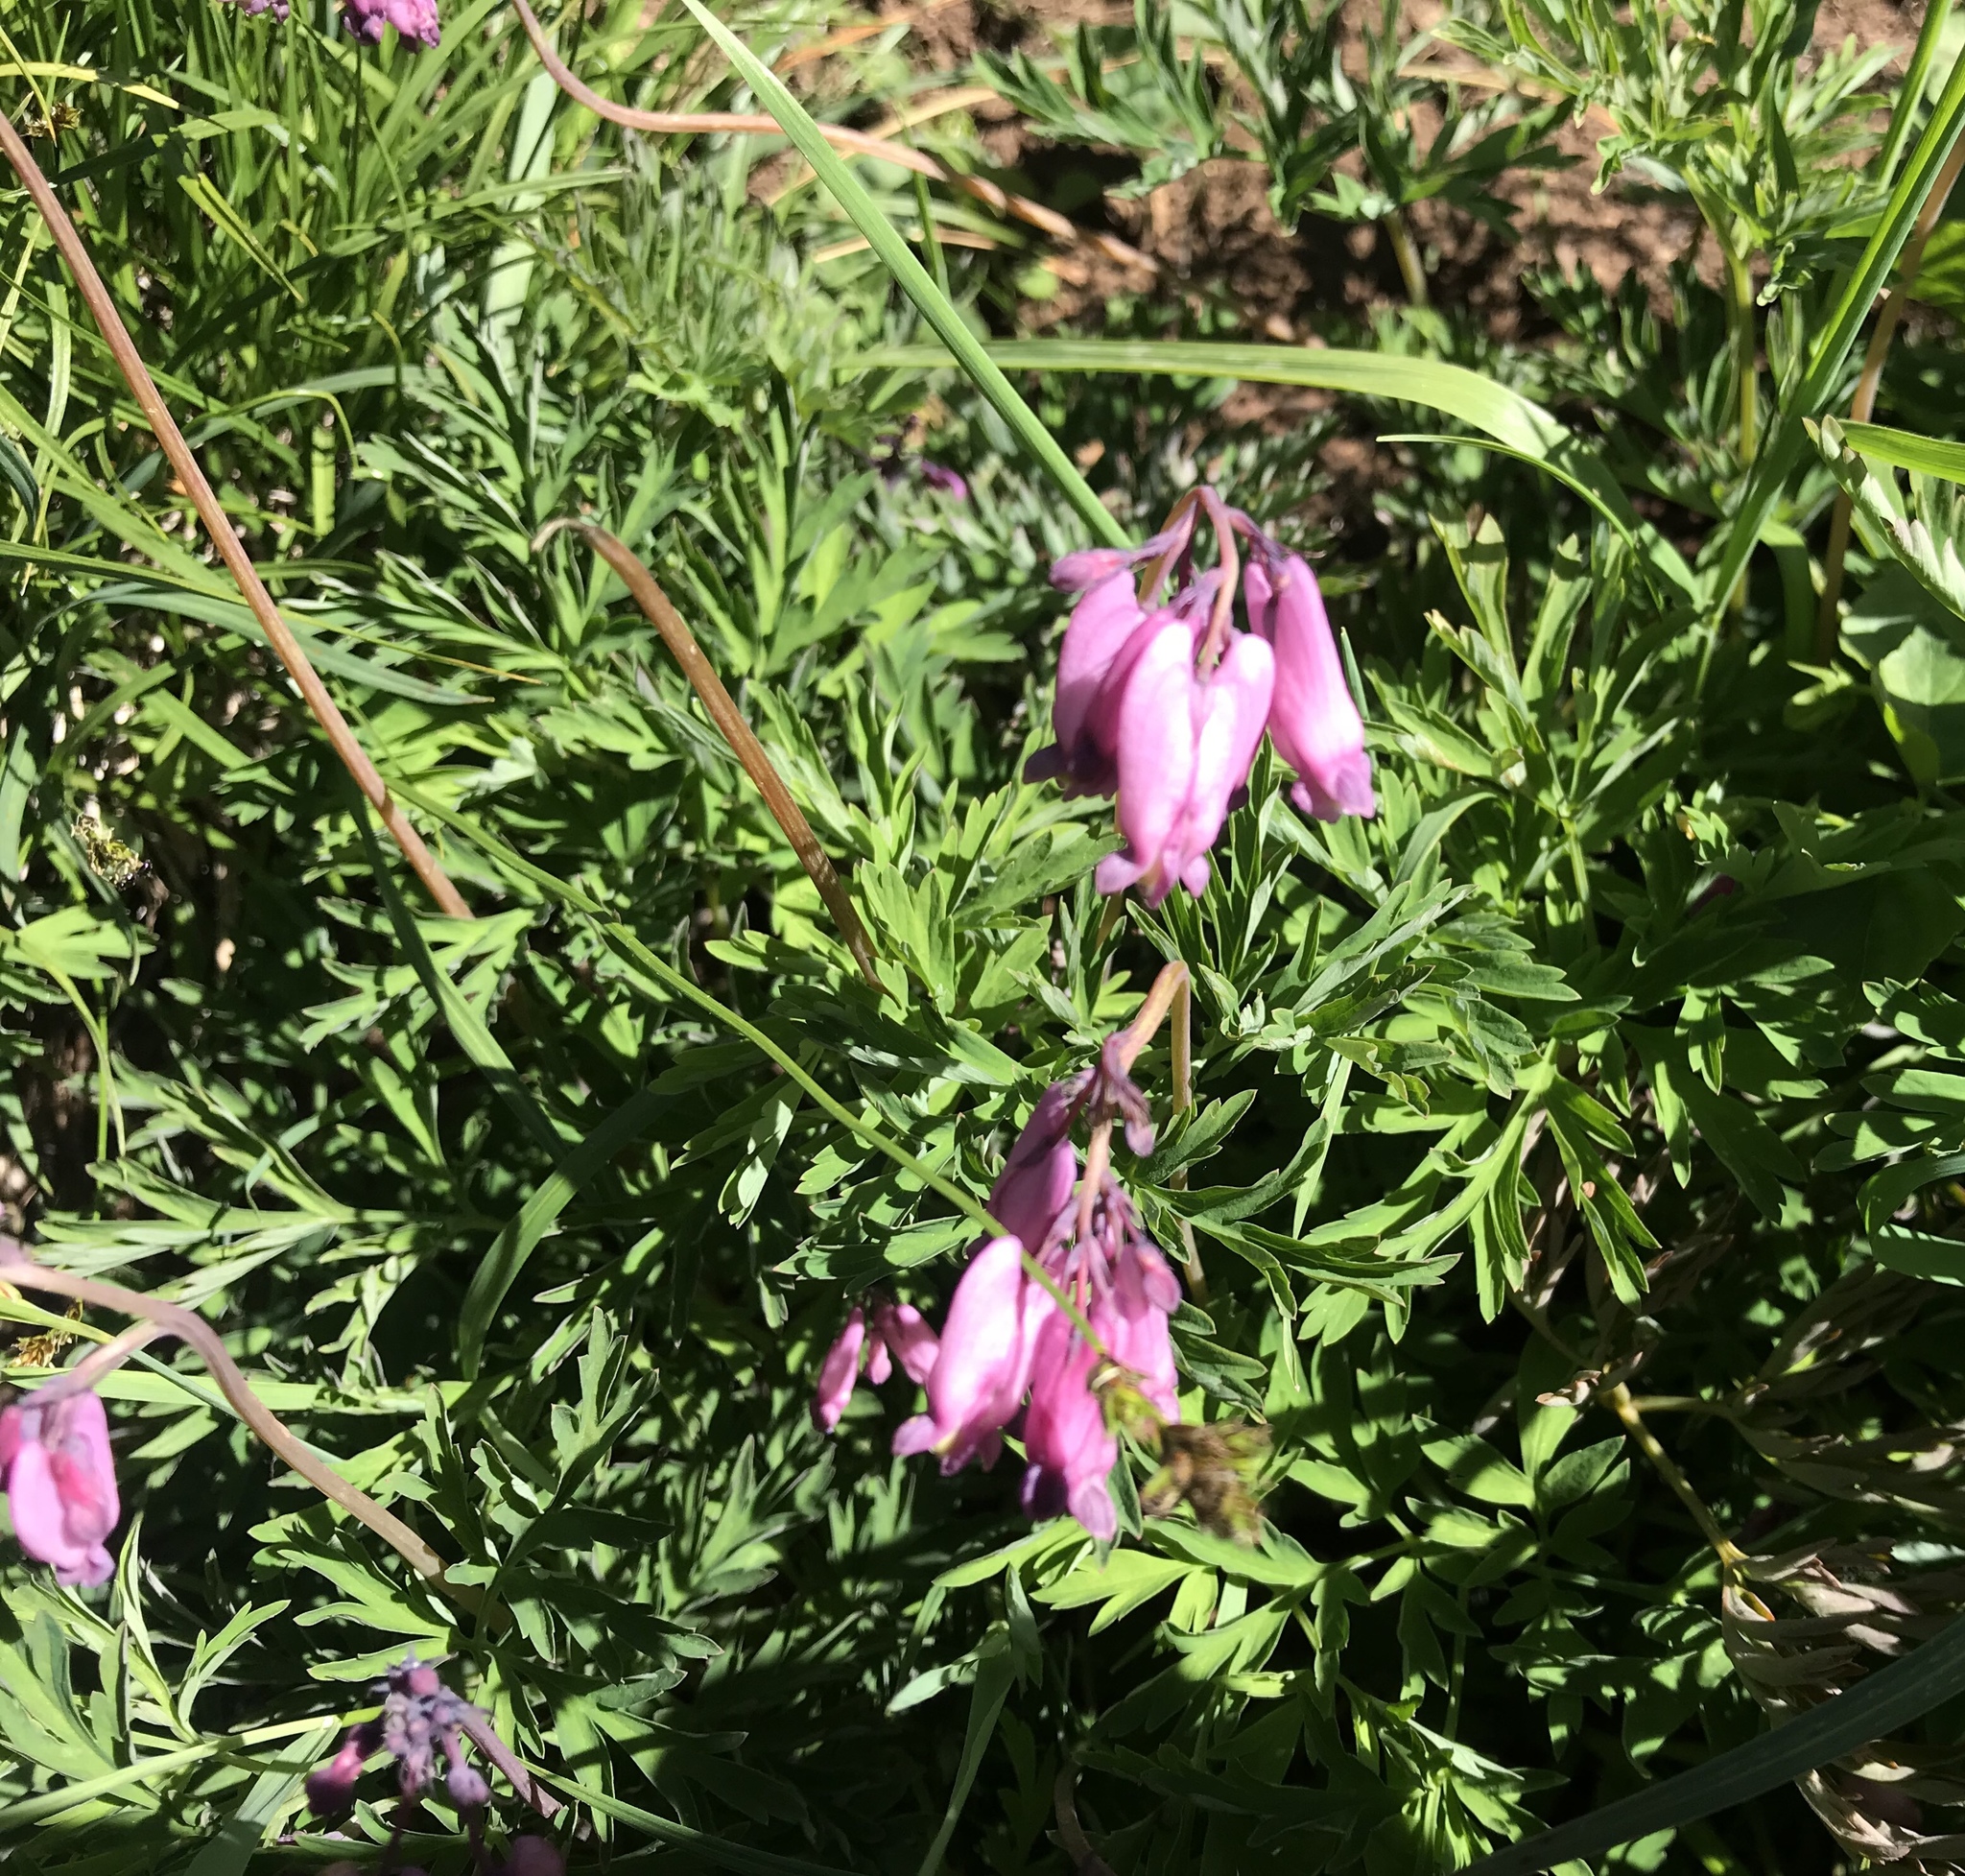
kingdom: Plantae
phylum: Tracheophyta
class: Magnoliopsida
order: Ranunculales
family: Papaveraceae
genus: Dicentra
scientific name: Dicentra formosa
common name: Bleeding-heart
